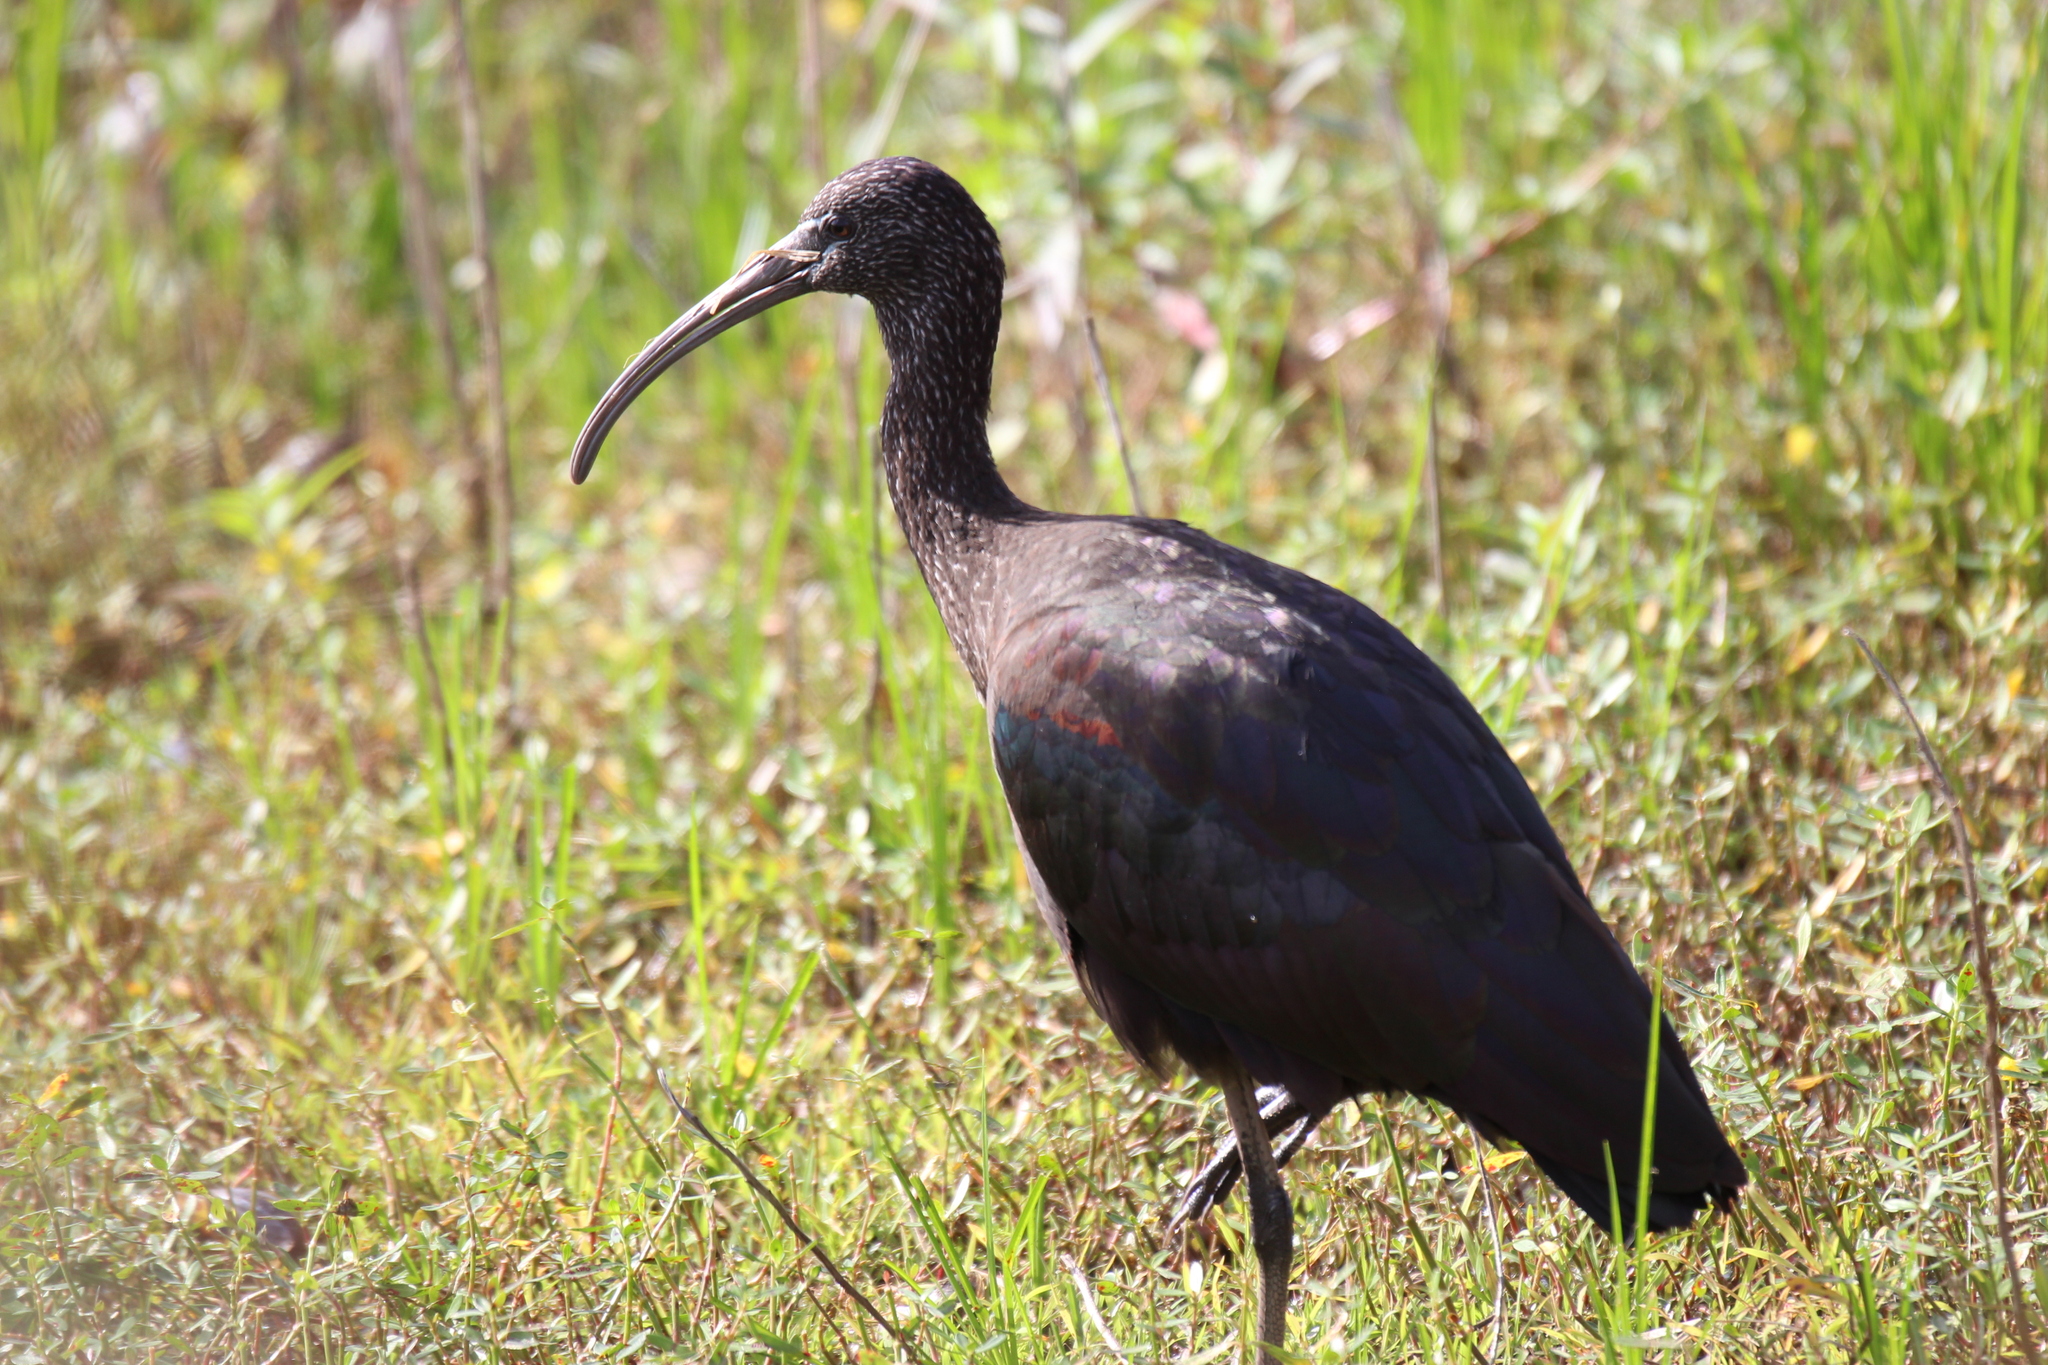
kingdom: Animalia
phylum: Chordata
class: Aves
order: Pelecaniformes
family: Threskiornithidae
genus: Plegadis
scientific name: Plegadis falcinellus
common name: Glossy ibis
